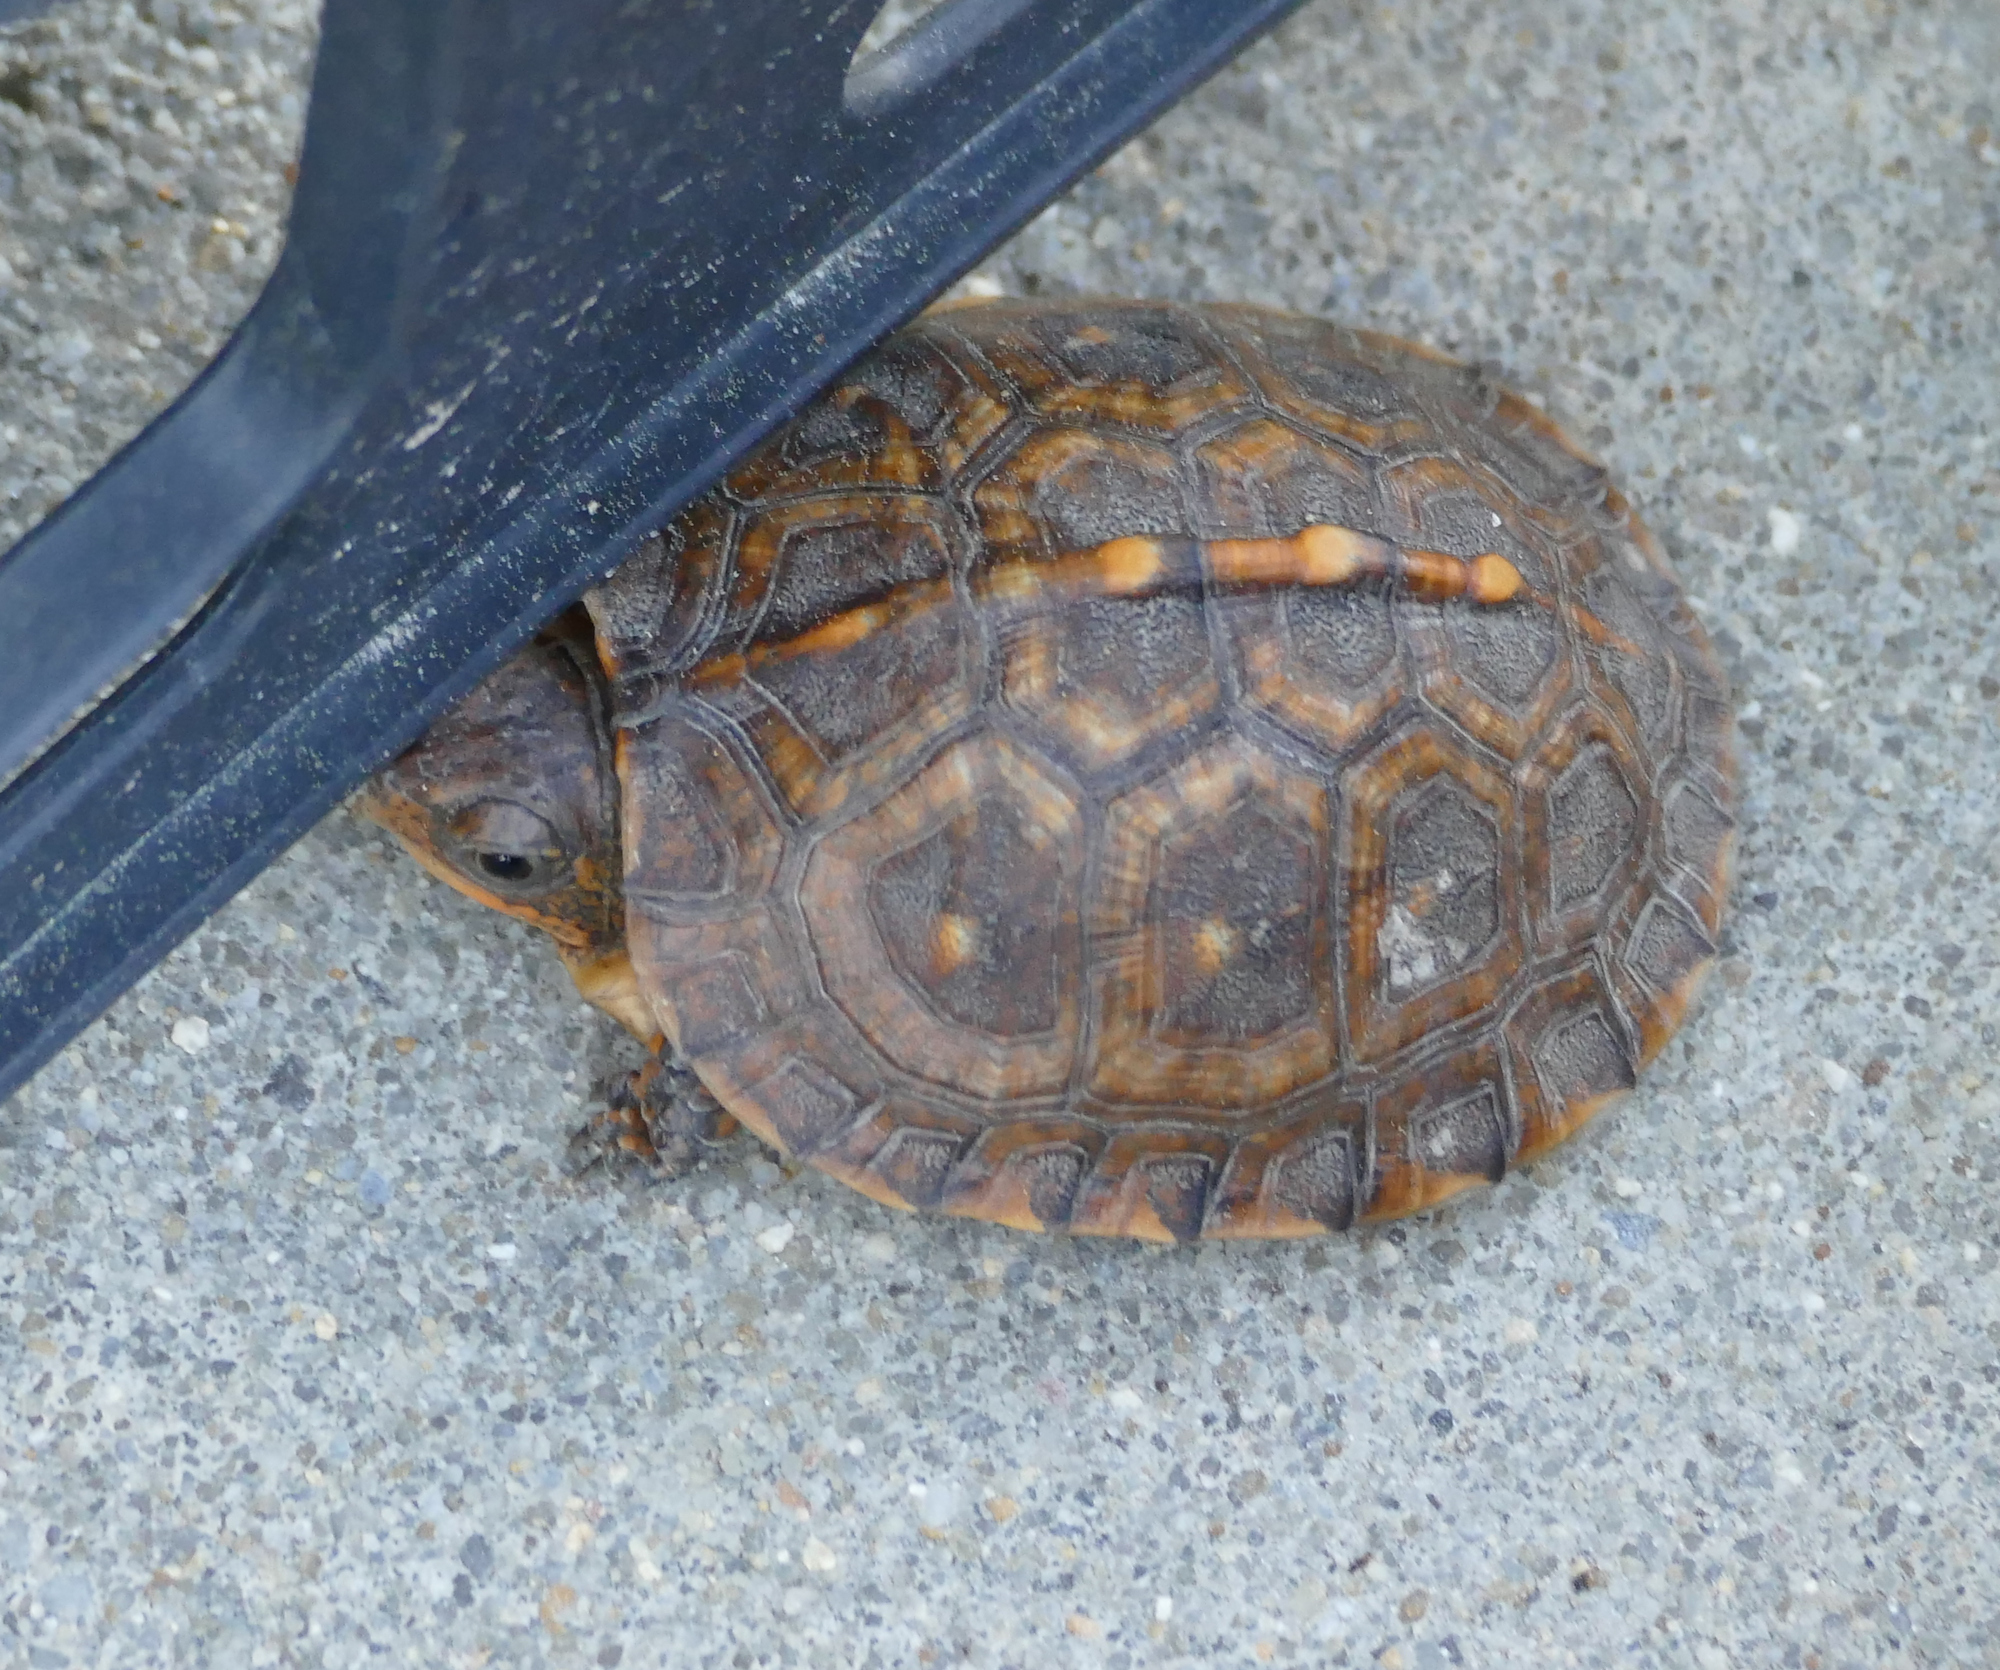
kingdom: Animalia
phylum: Chordata
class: Testudines
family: Emydidae
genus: Terrapene
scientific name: Terrapene carolina
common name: Common box turtle
